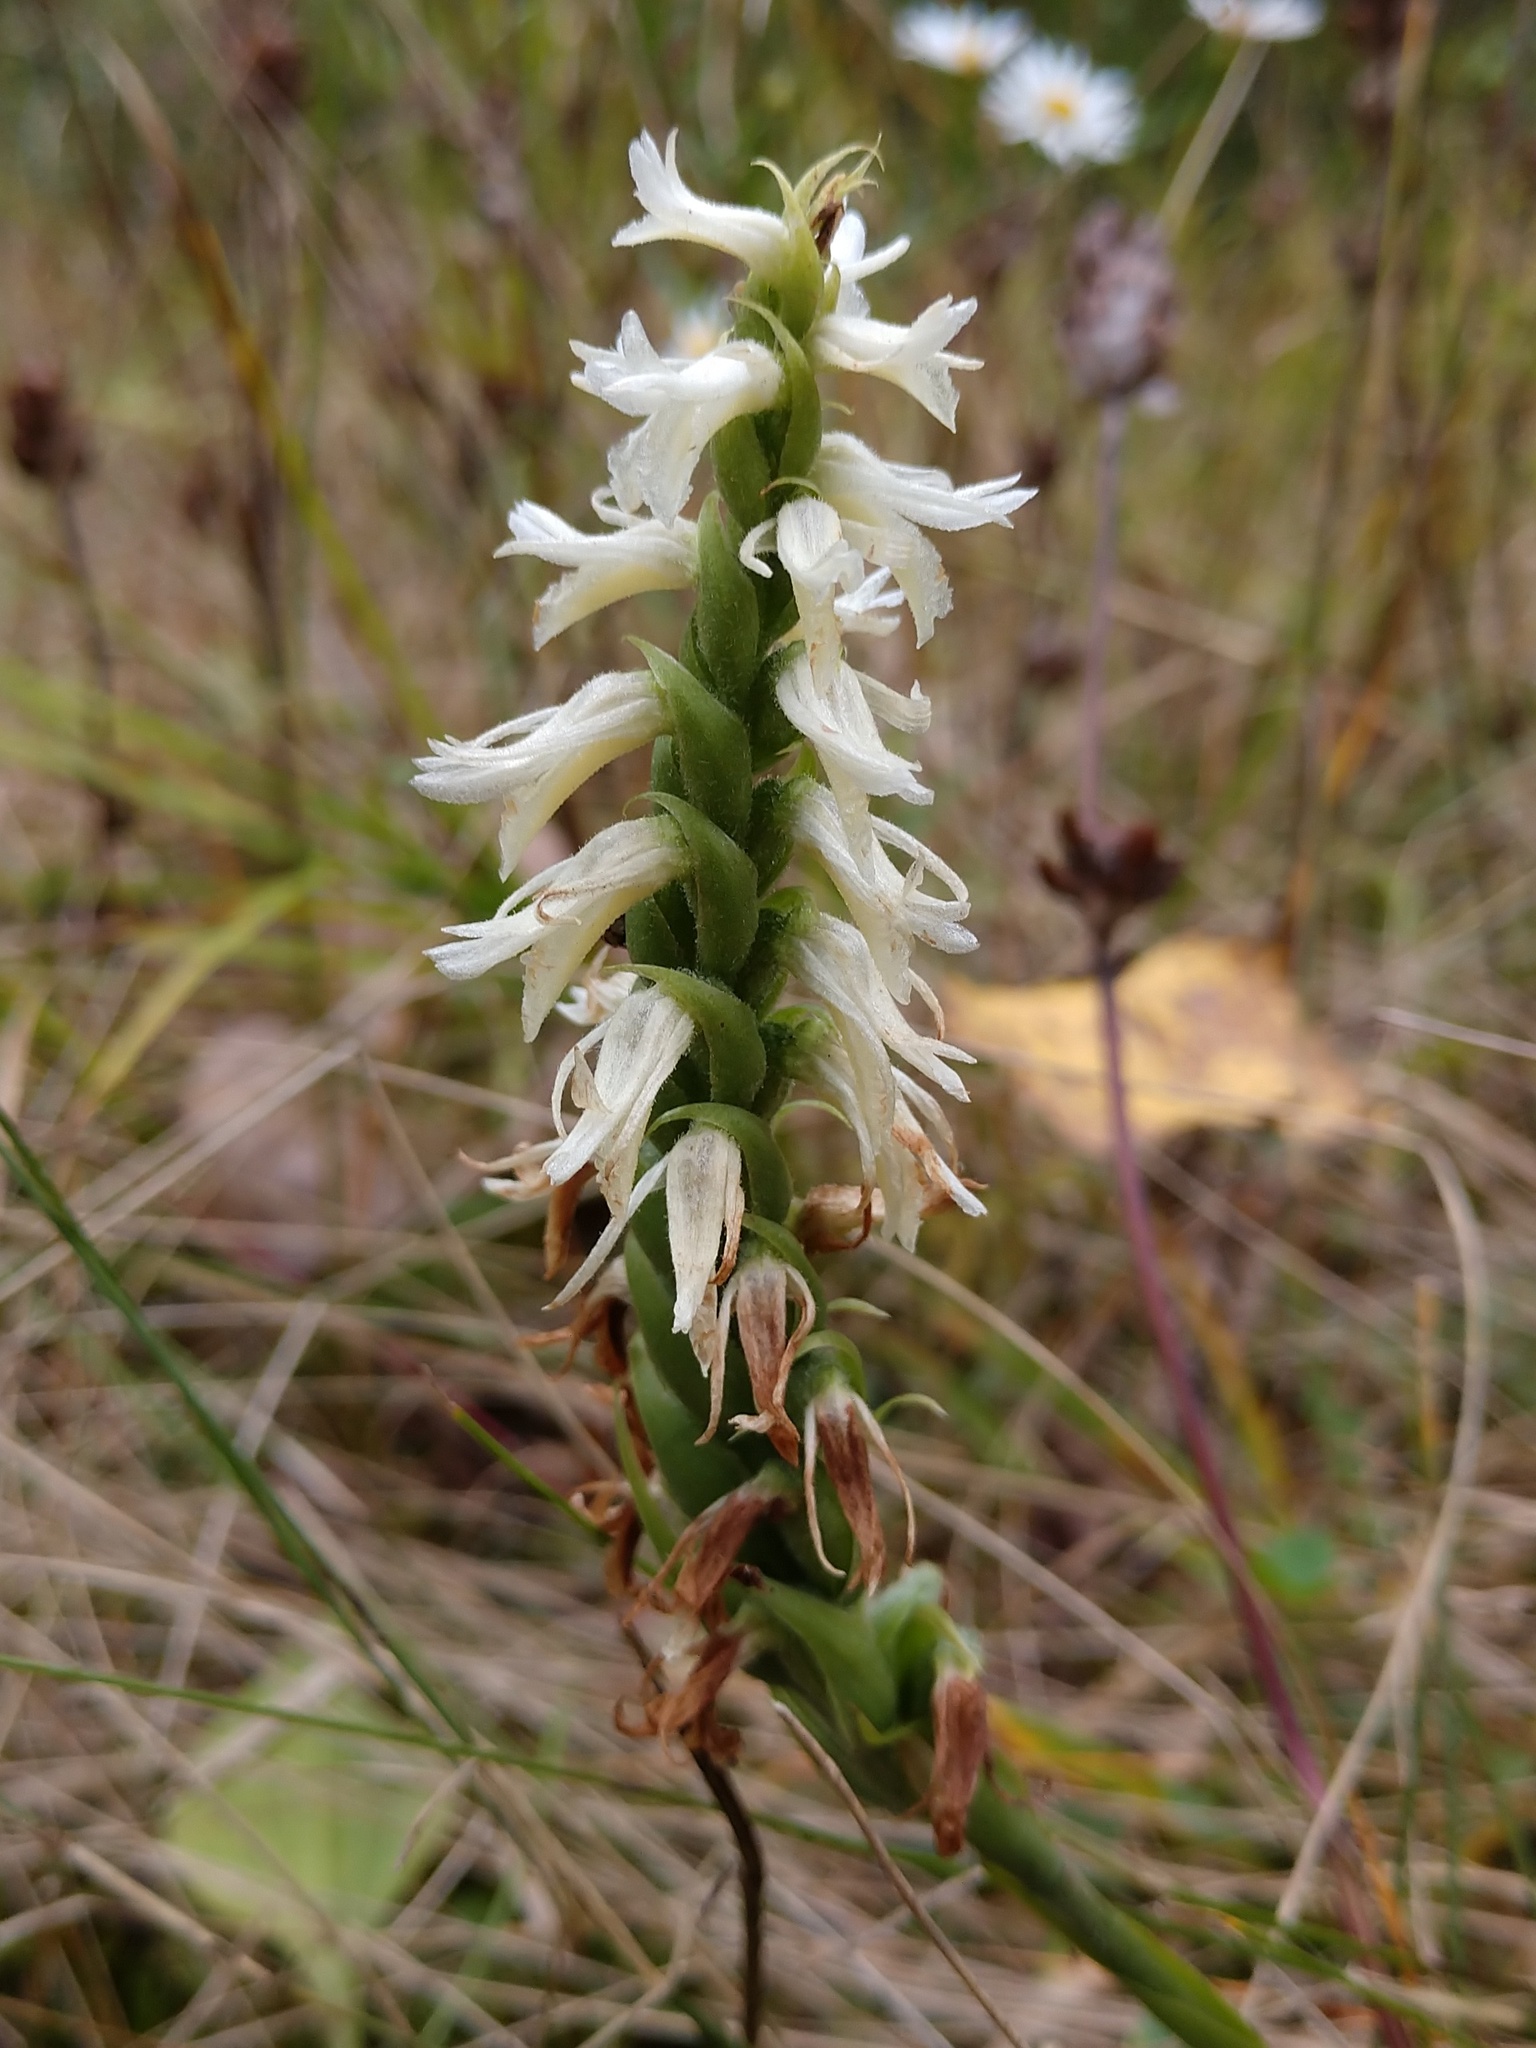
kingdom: Plantae
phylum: Tracheophyta
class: Liliopsida
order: Asparagales
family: Orchidaceae
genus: Spiranthes
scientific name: Spiranthes magnicamporum
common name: Great plains ladies'-tresses
